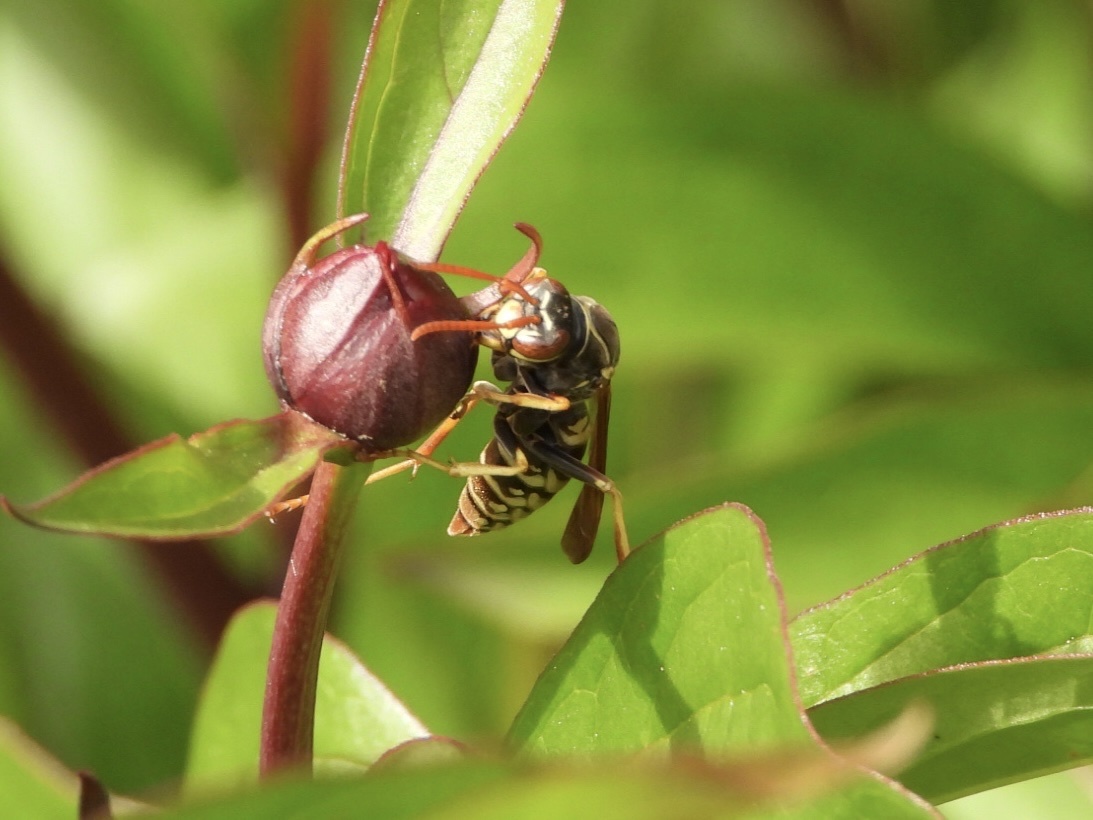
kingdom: Animalia
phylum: Arthropoda
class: Insecta
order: Hymenoptera
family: Eumenidae
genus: Polistes
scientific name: Polistes aurifer
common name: Paper wasp
